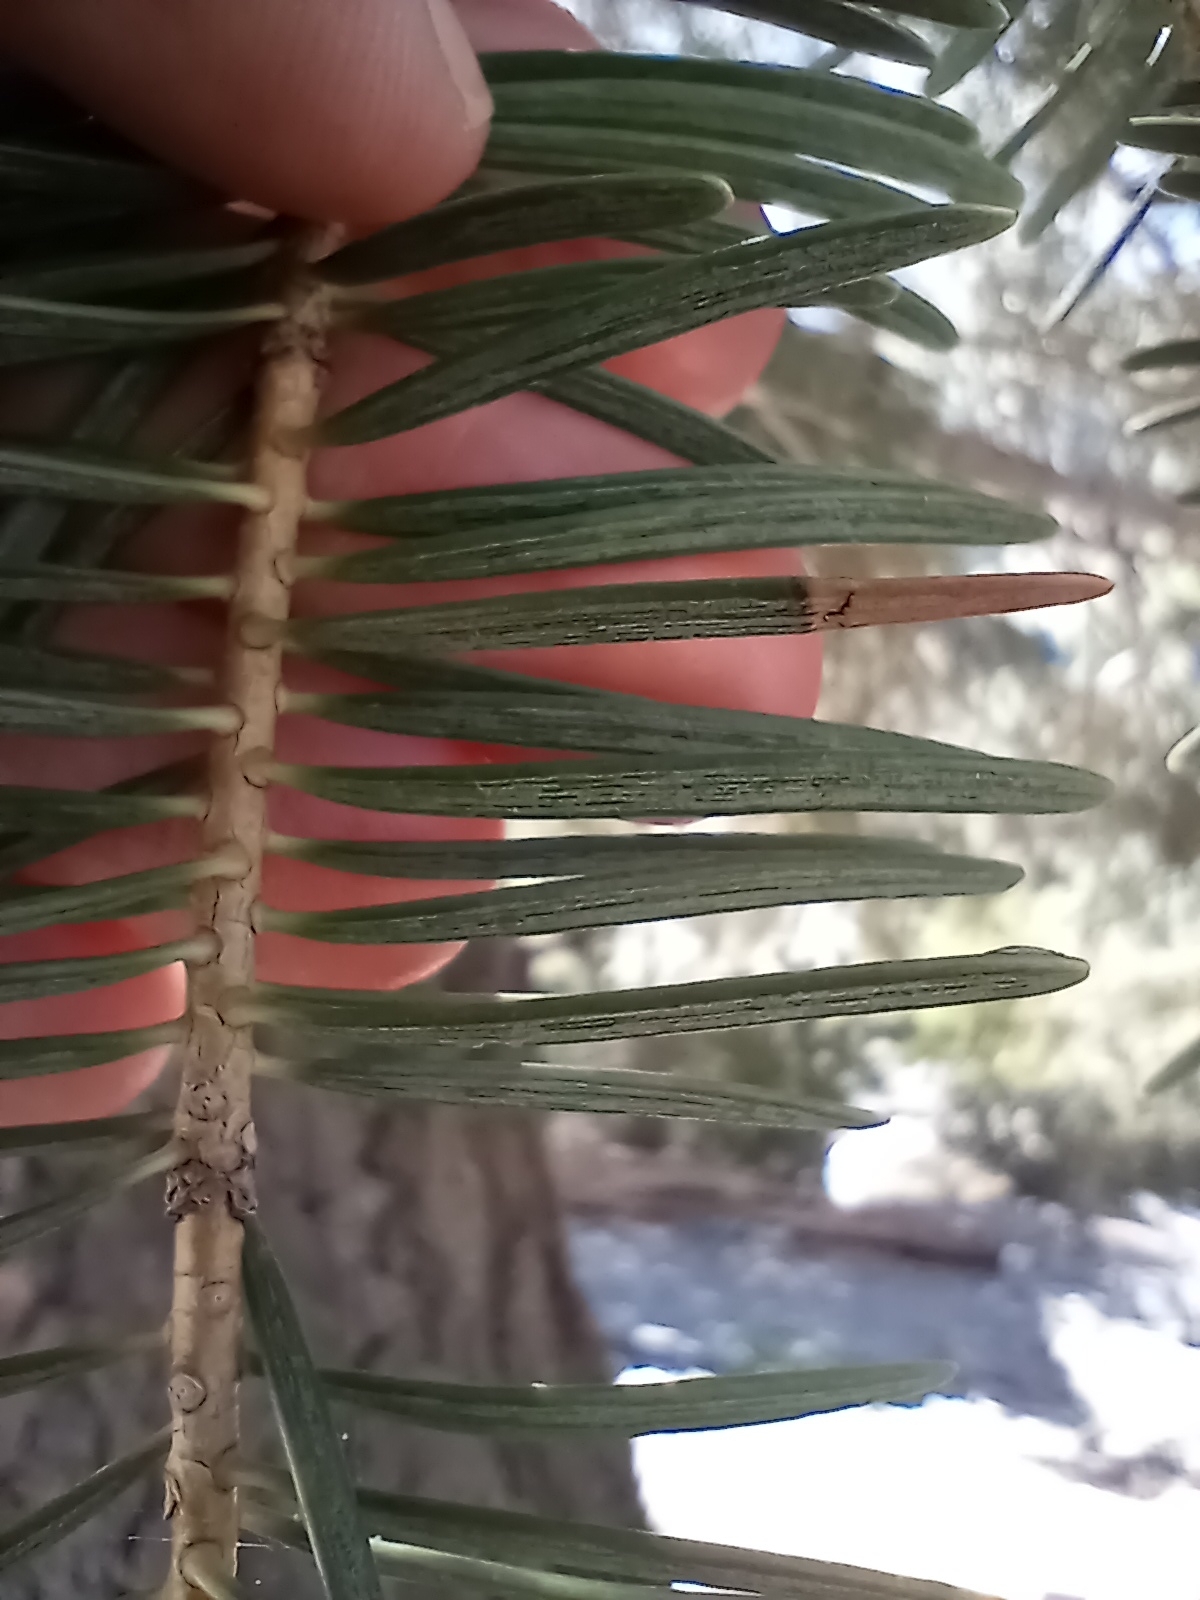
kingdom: Plantae
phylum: Tracheophyta
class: Pinopsida
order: Pinales
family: Pinaceae
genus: Abies
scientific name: Abies concolor
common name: Colorado fir
